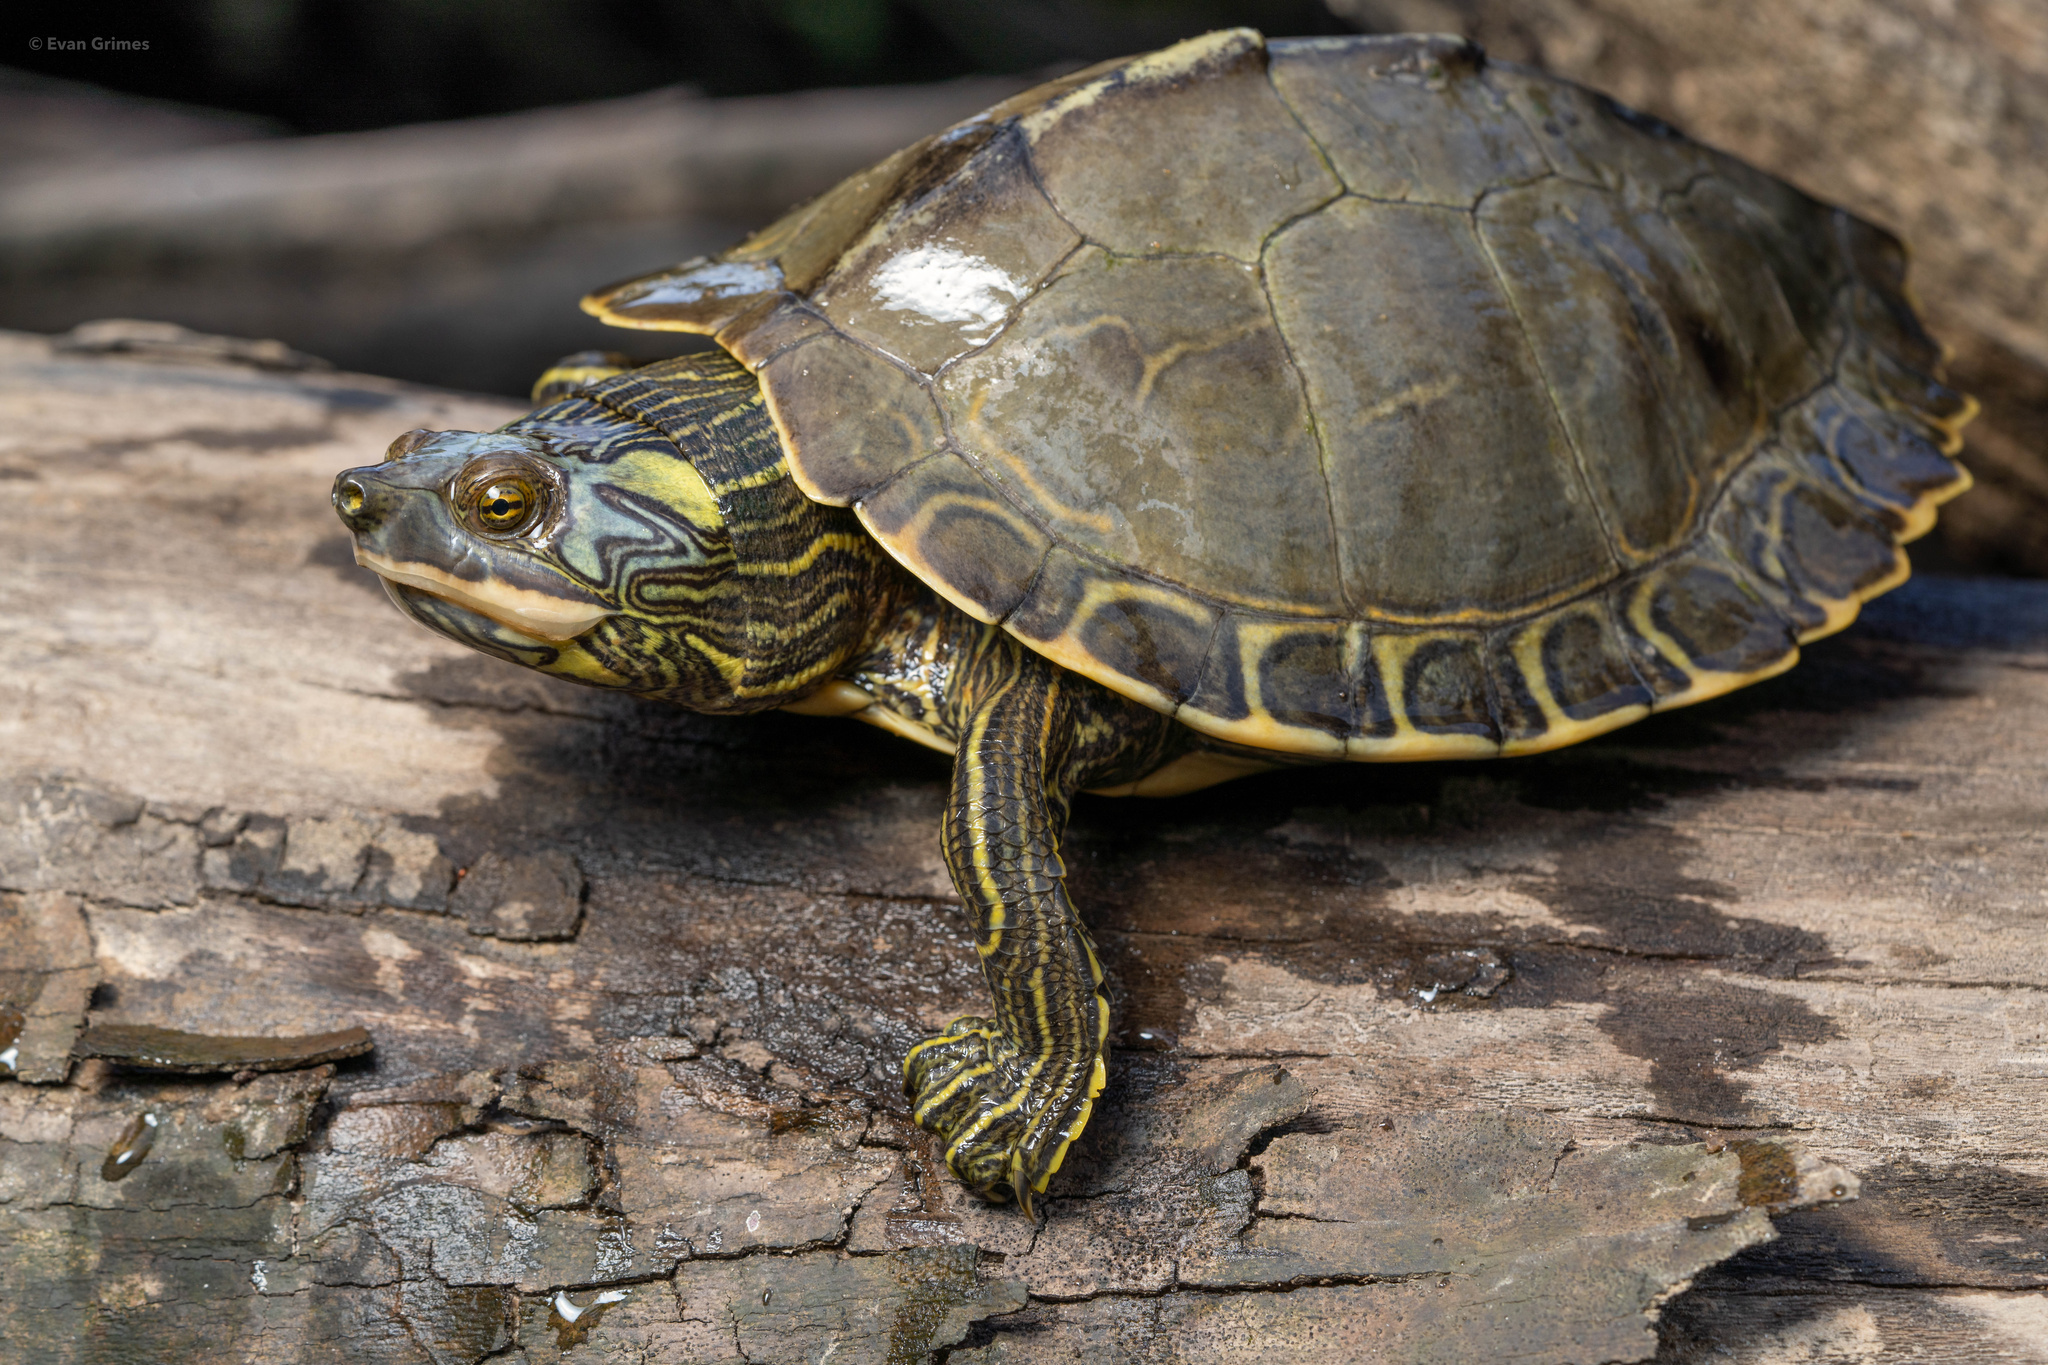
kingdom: Animalia
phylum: Chordata
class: Testudines
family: Emydidae
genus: Graptemys
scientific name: Graptemys pearlensis
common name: Pearl river map turtle
